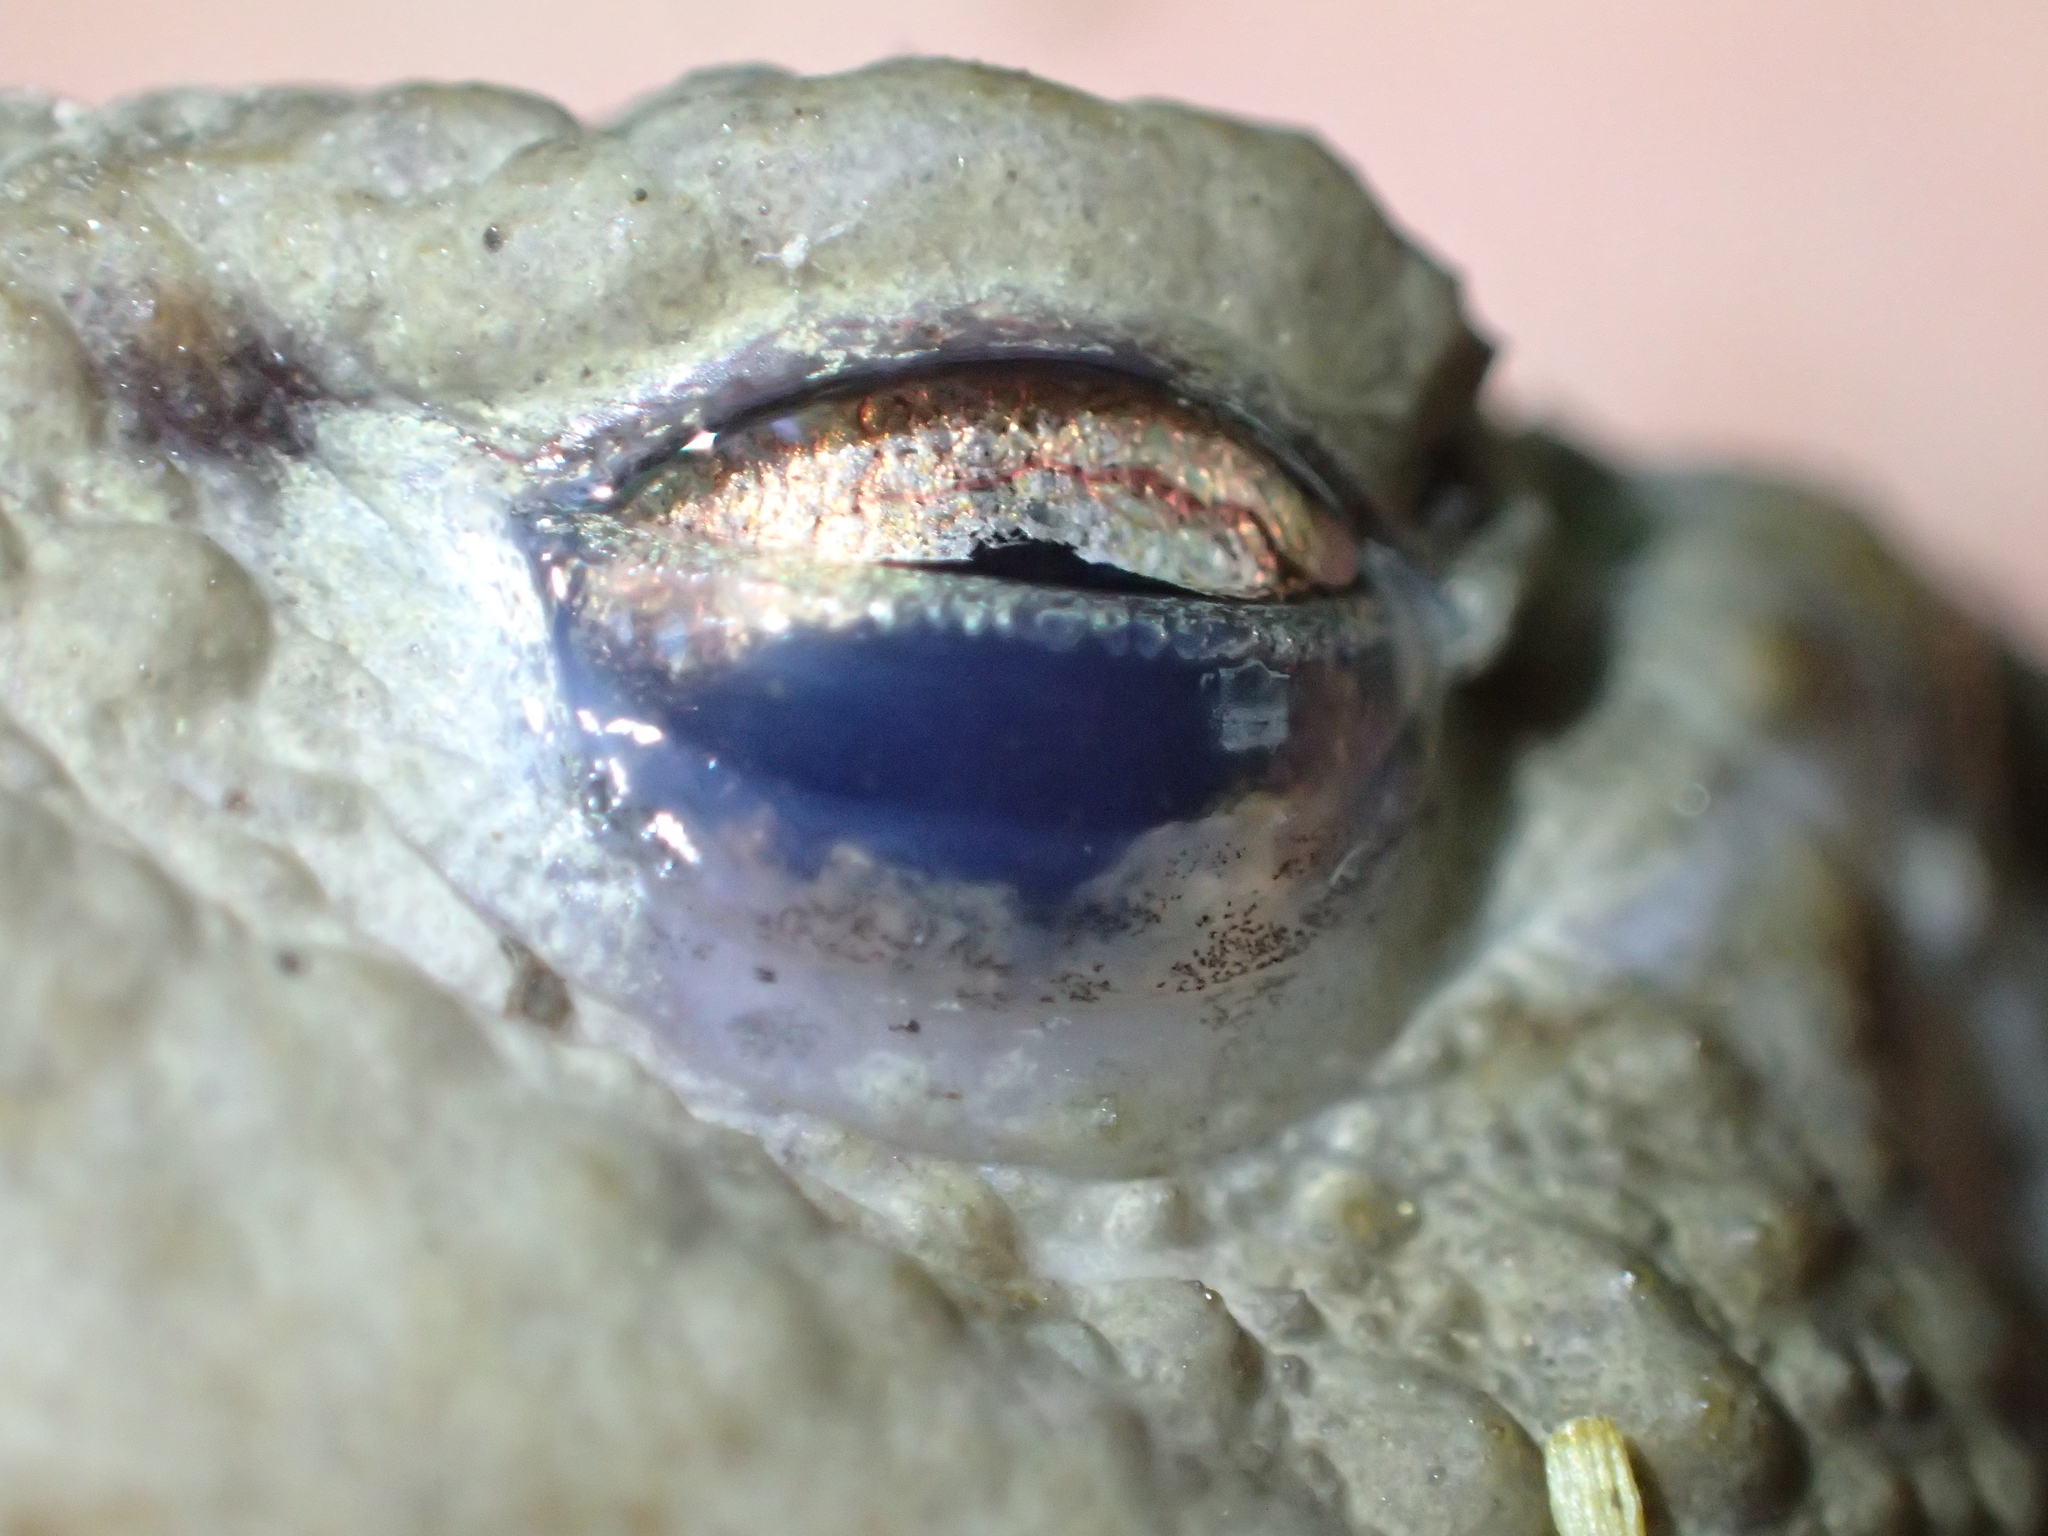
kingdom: Animalia
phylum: Chordata
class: Amphibia
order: Anura
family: Bufonidae
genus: Bufo
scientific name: Bufo bufo
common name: Common toad
